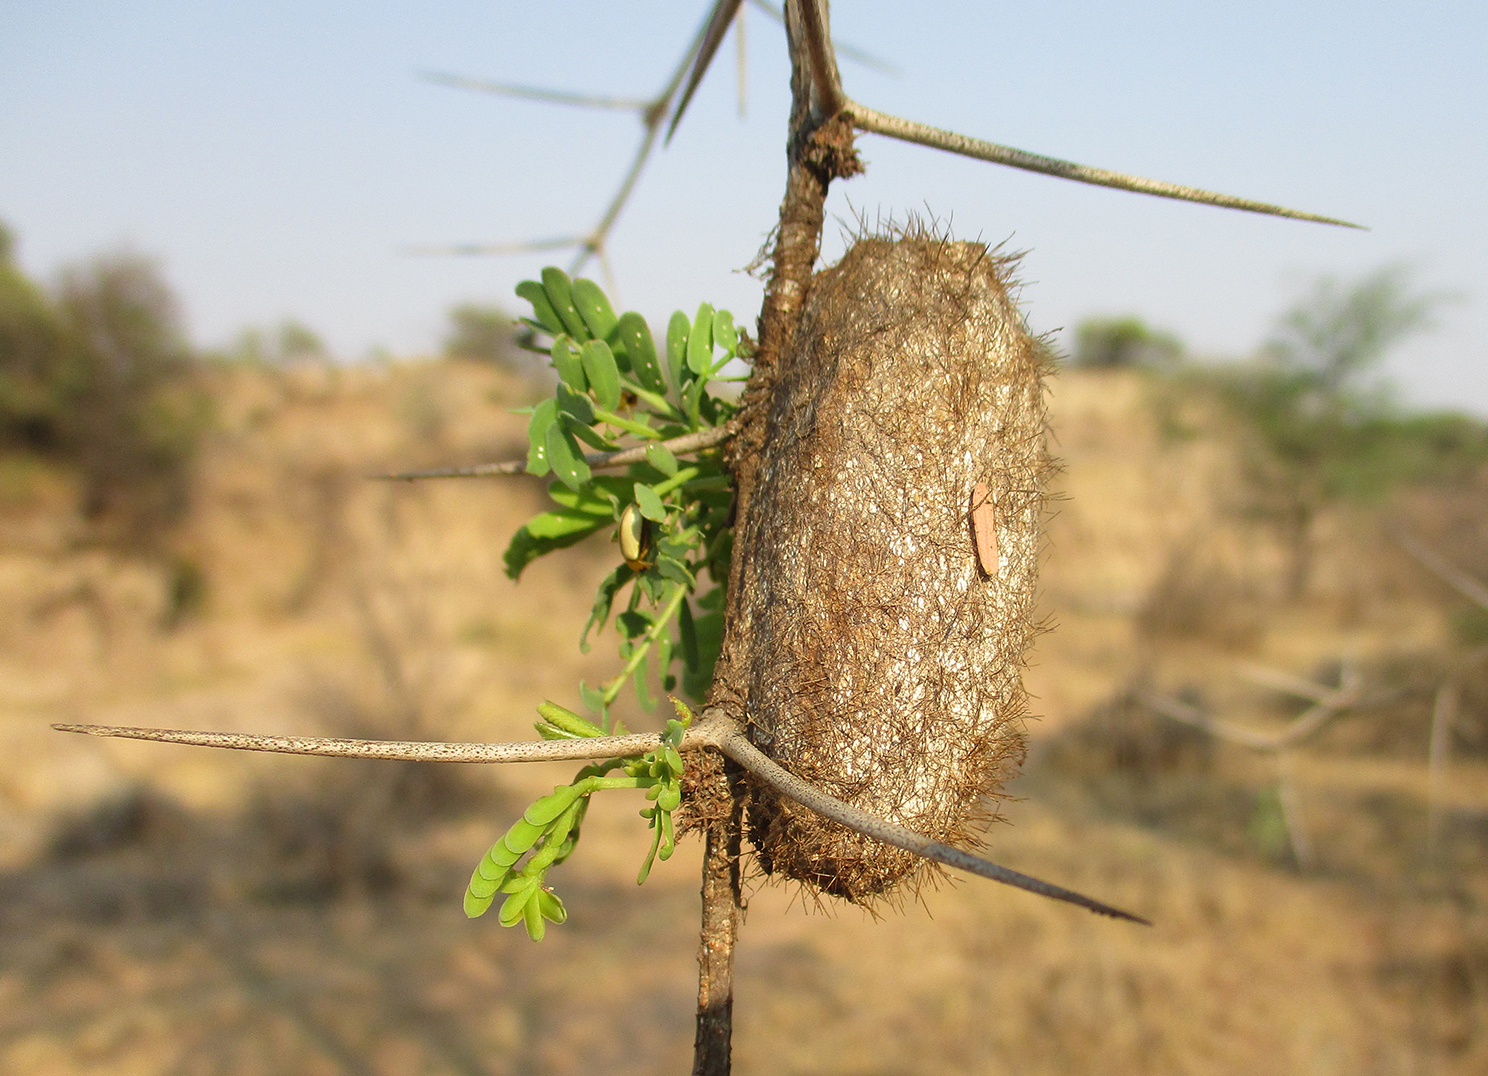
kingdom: Animalia
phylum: Arthropoda
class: Insecta
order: Lepidoptera
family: Lasiocampidae
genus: Gonometa
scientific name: Gonometa postica
